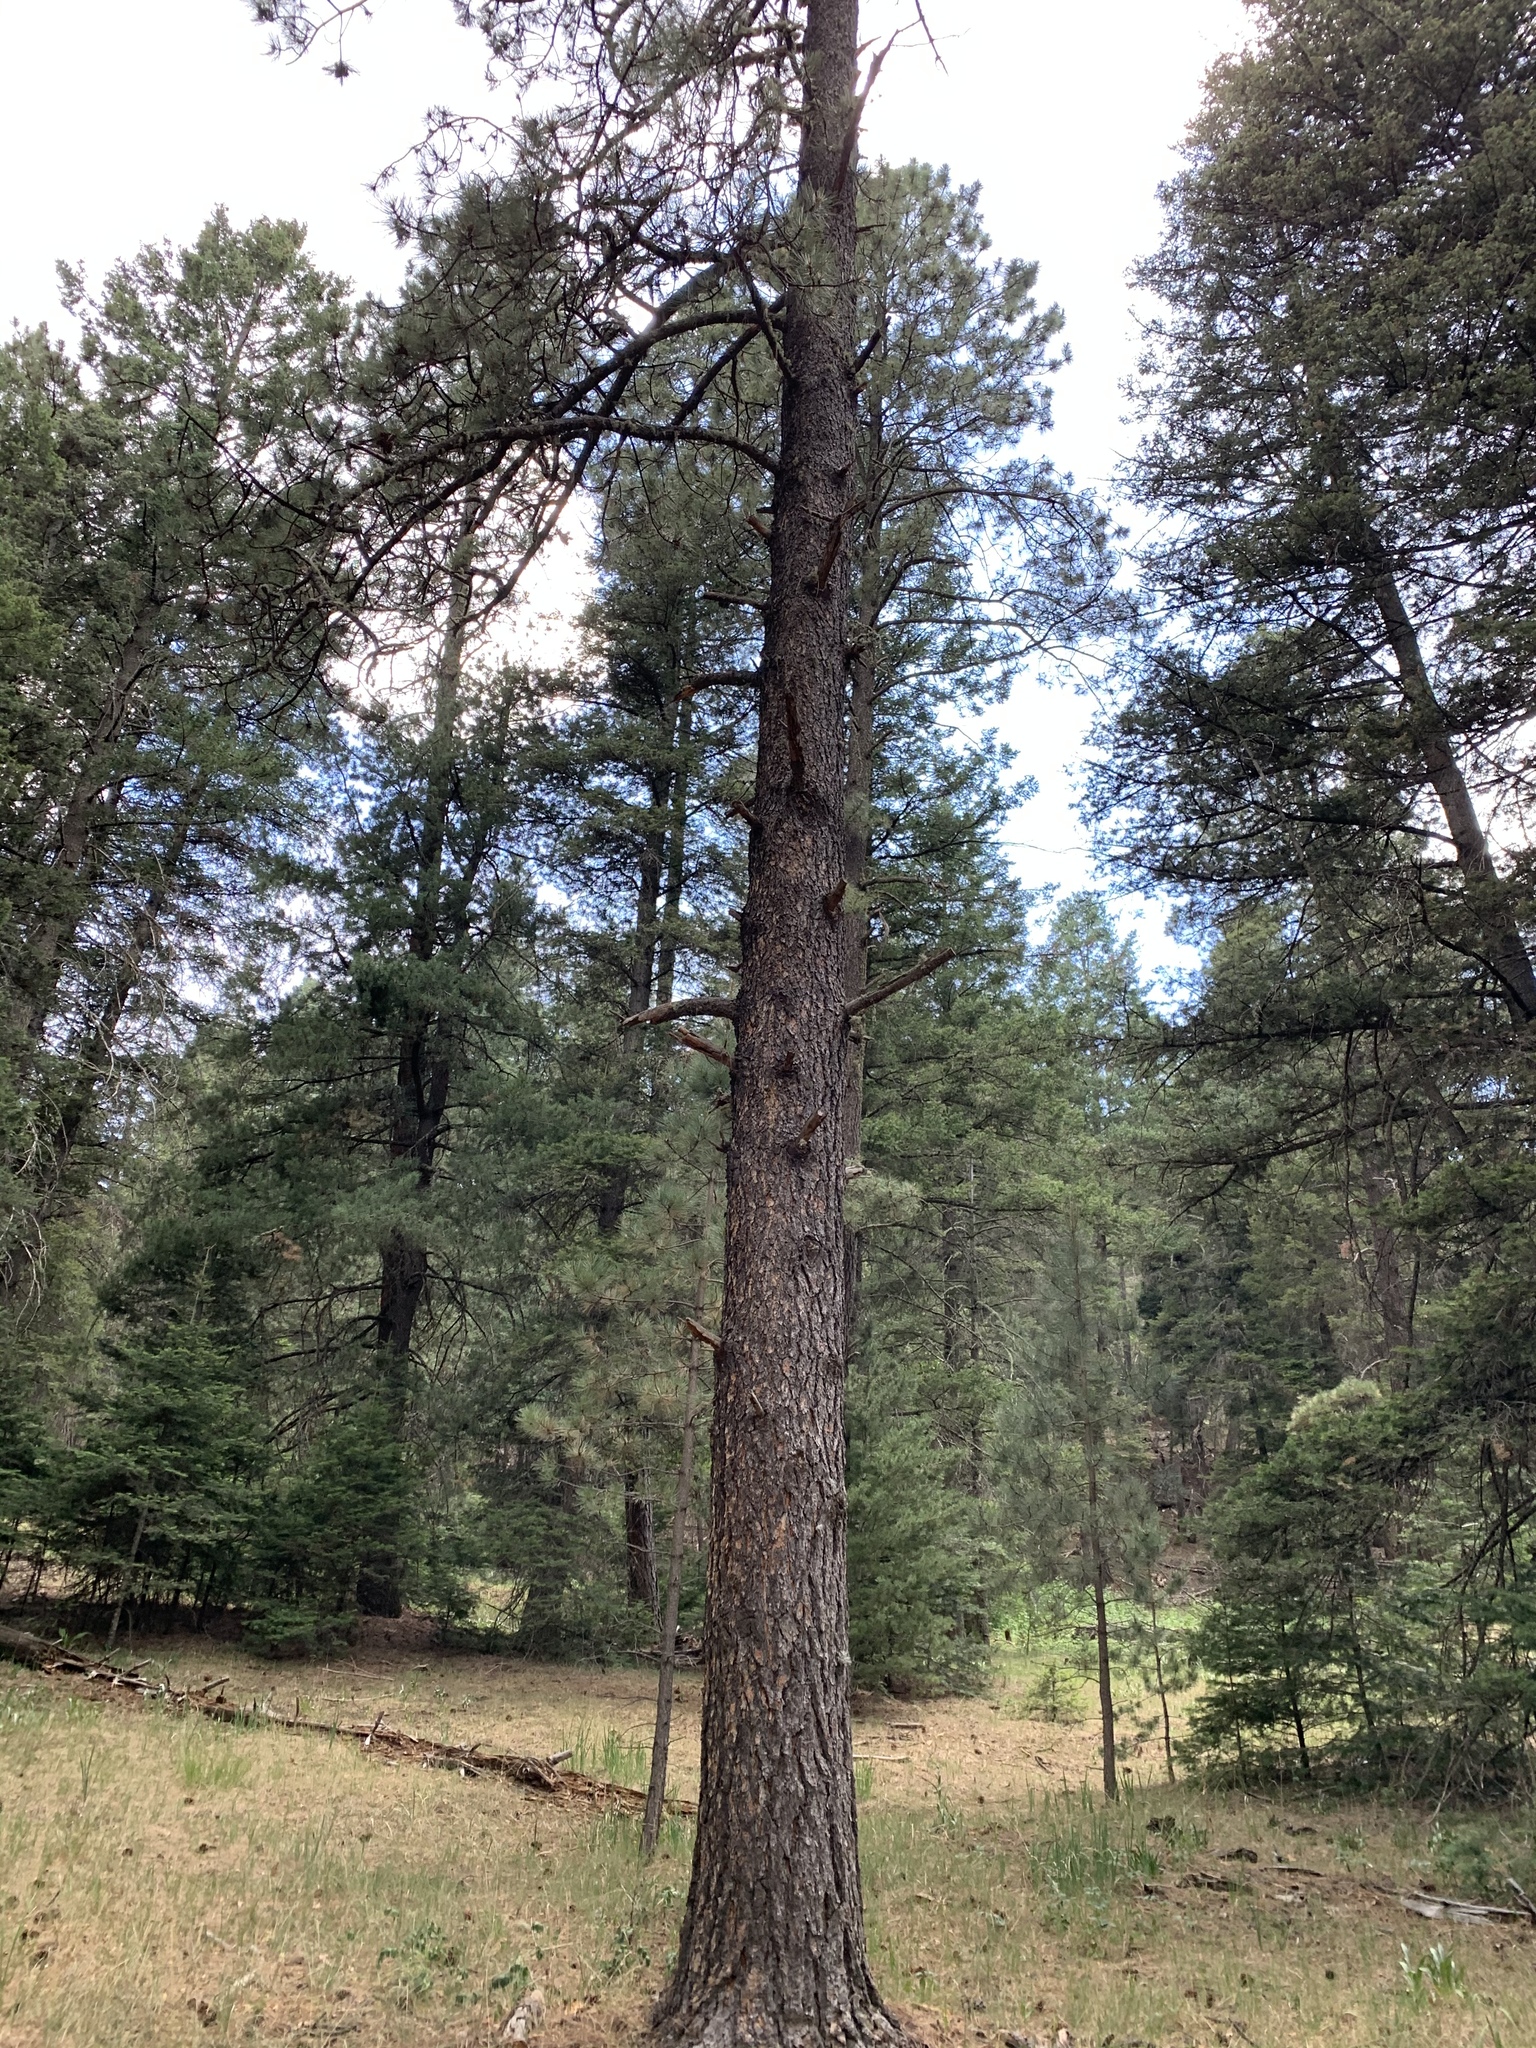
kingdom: Plantae
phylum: Tracheophyta
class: Pinopsida
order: Pinales
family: Pinaceae
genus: Pinus
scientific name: Pinus ponderosa
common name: Western yellow-pine
